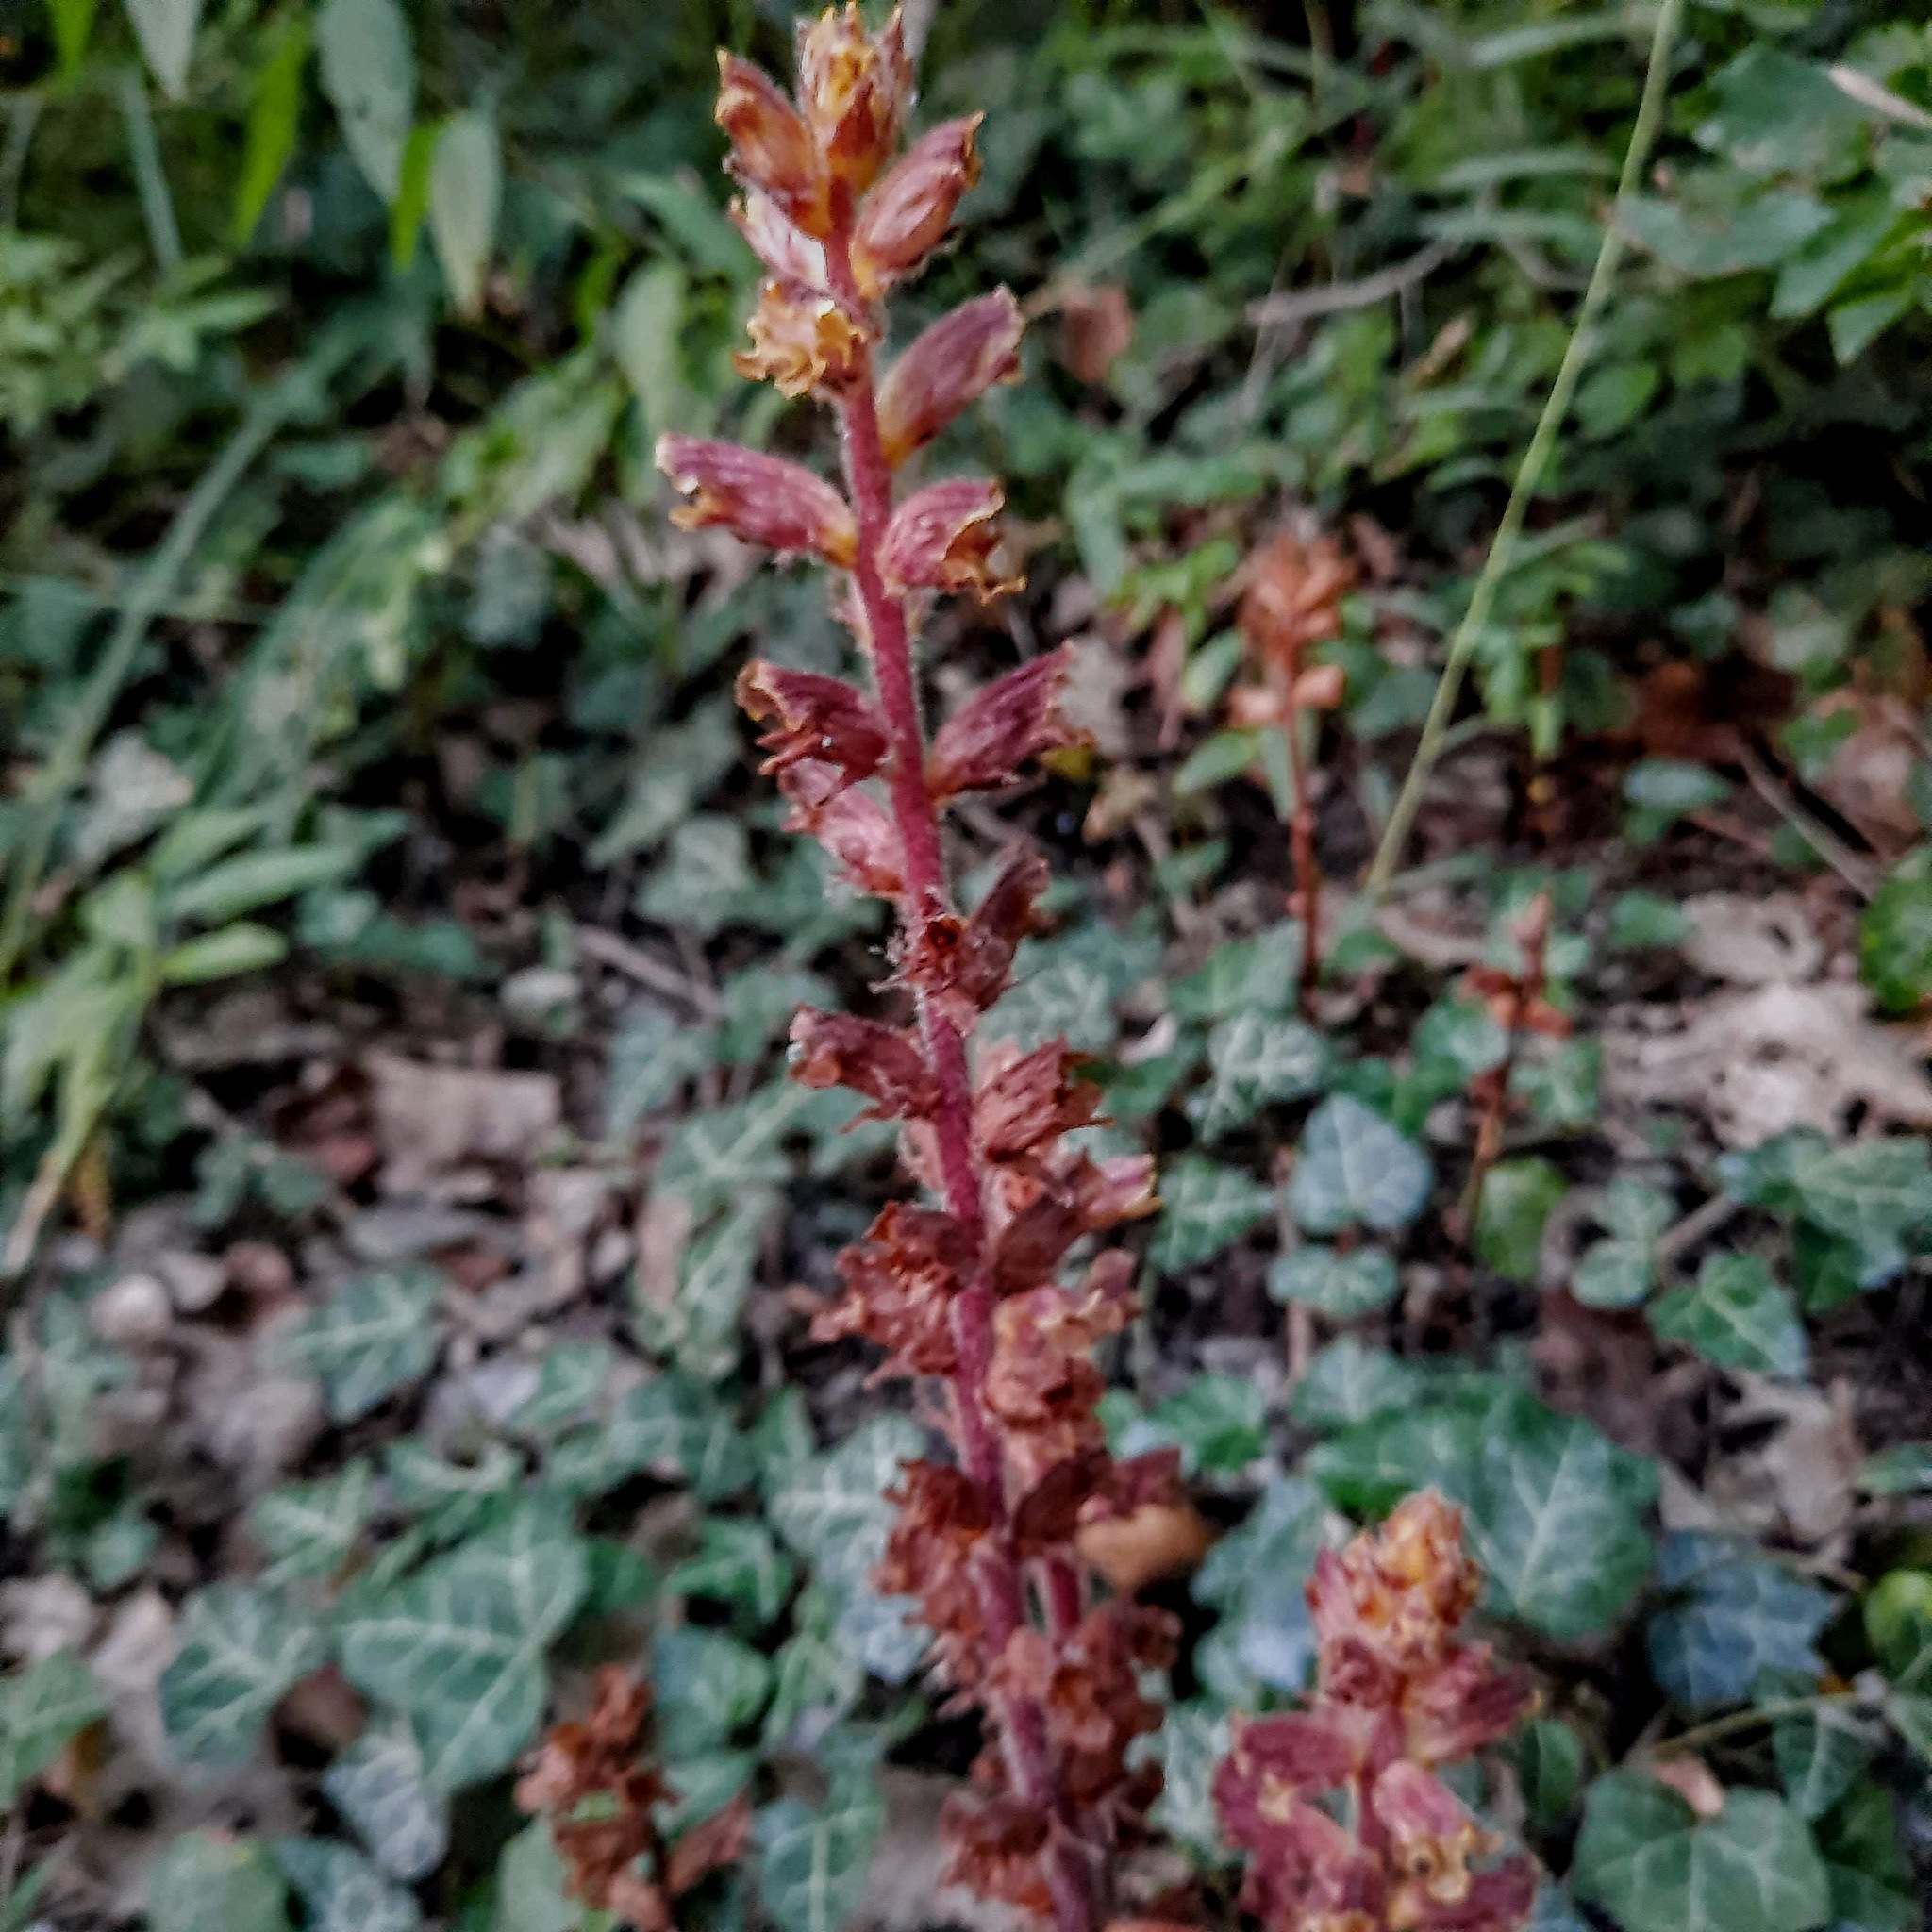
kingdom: Plantae
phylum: Tracheophyta
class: Magnoliopsida
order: Lamiales
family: Orobanchaceae
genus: Orobanche
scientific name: Orobanche laxissima
